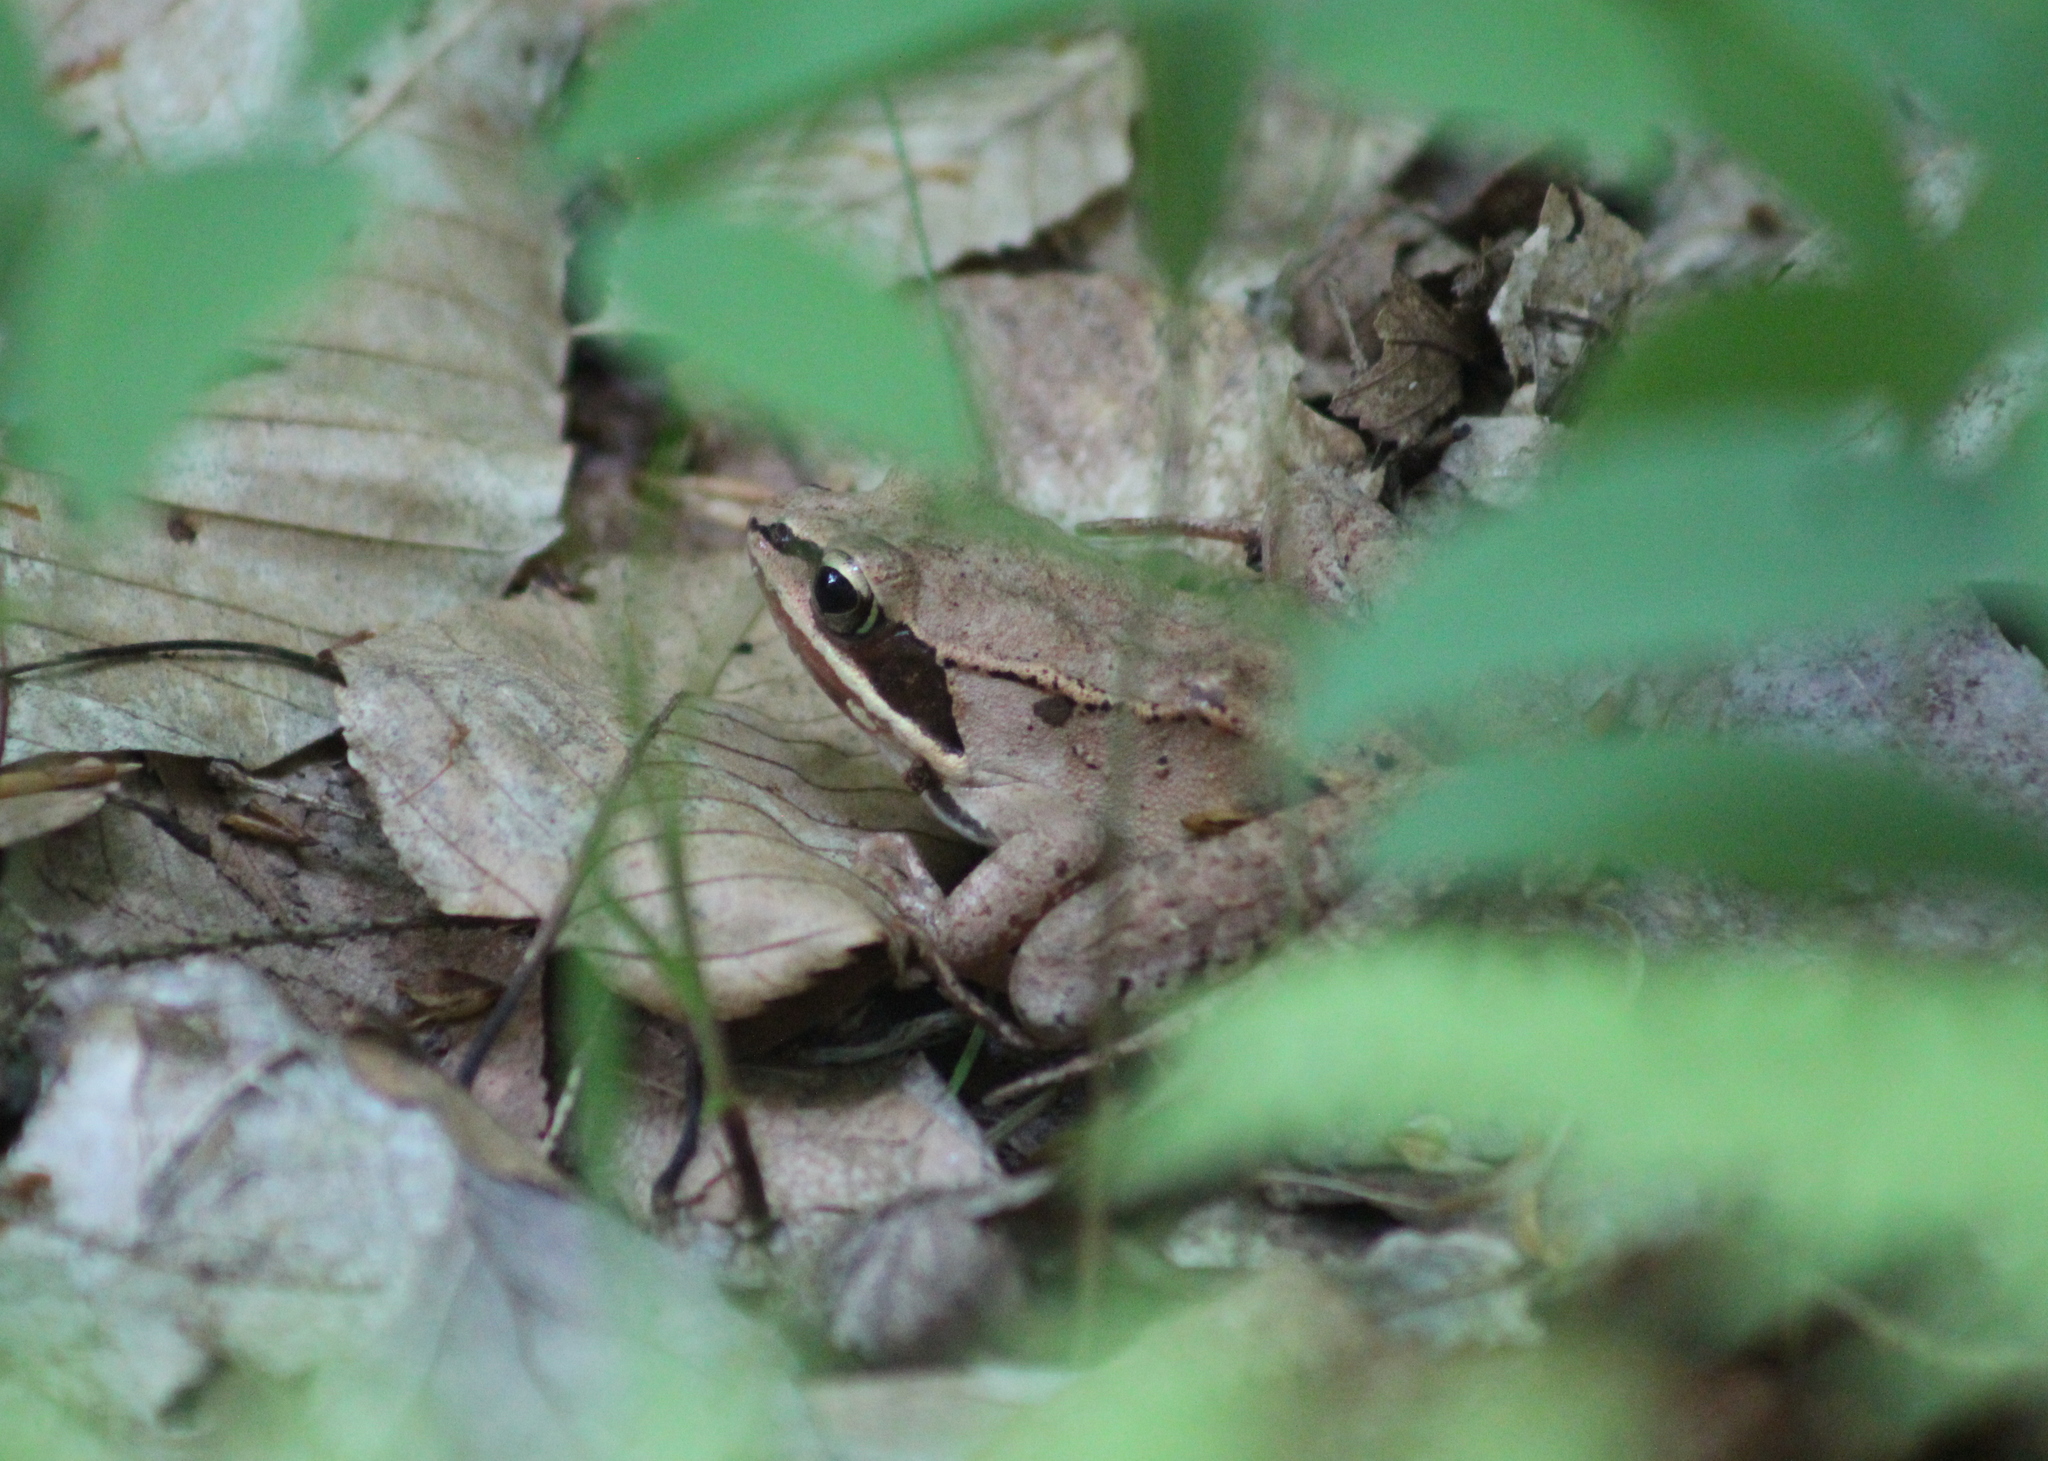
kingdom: Animalia
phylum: Chordata
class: Amphibia
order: Anura
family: Ranidae
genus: Lithobates
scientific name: Lithobates sylvaticus
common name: Wood frog
